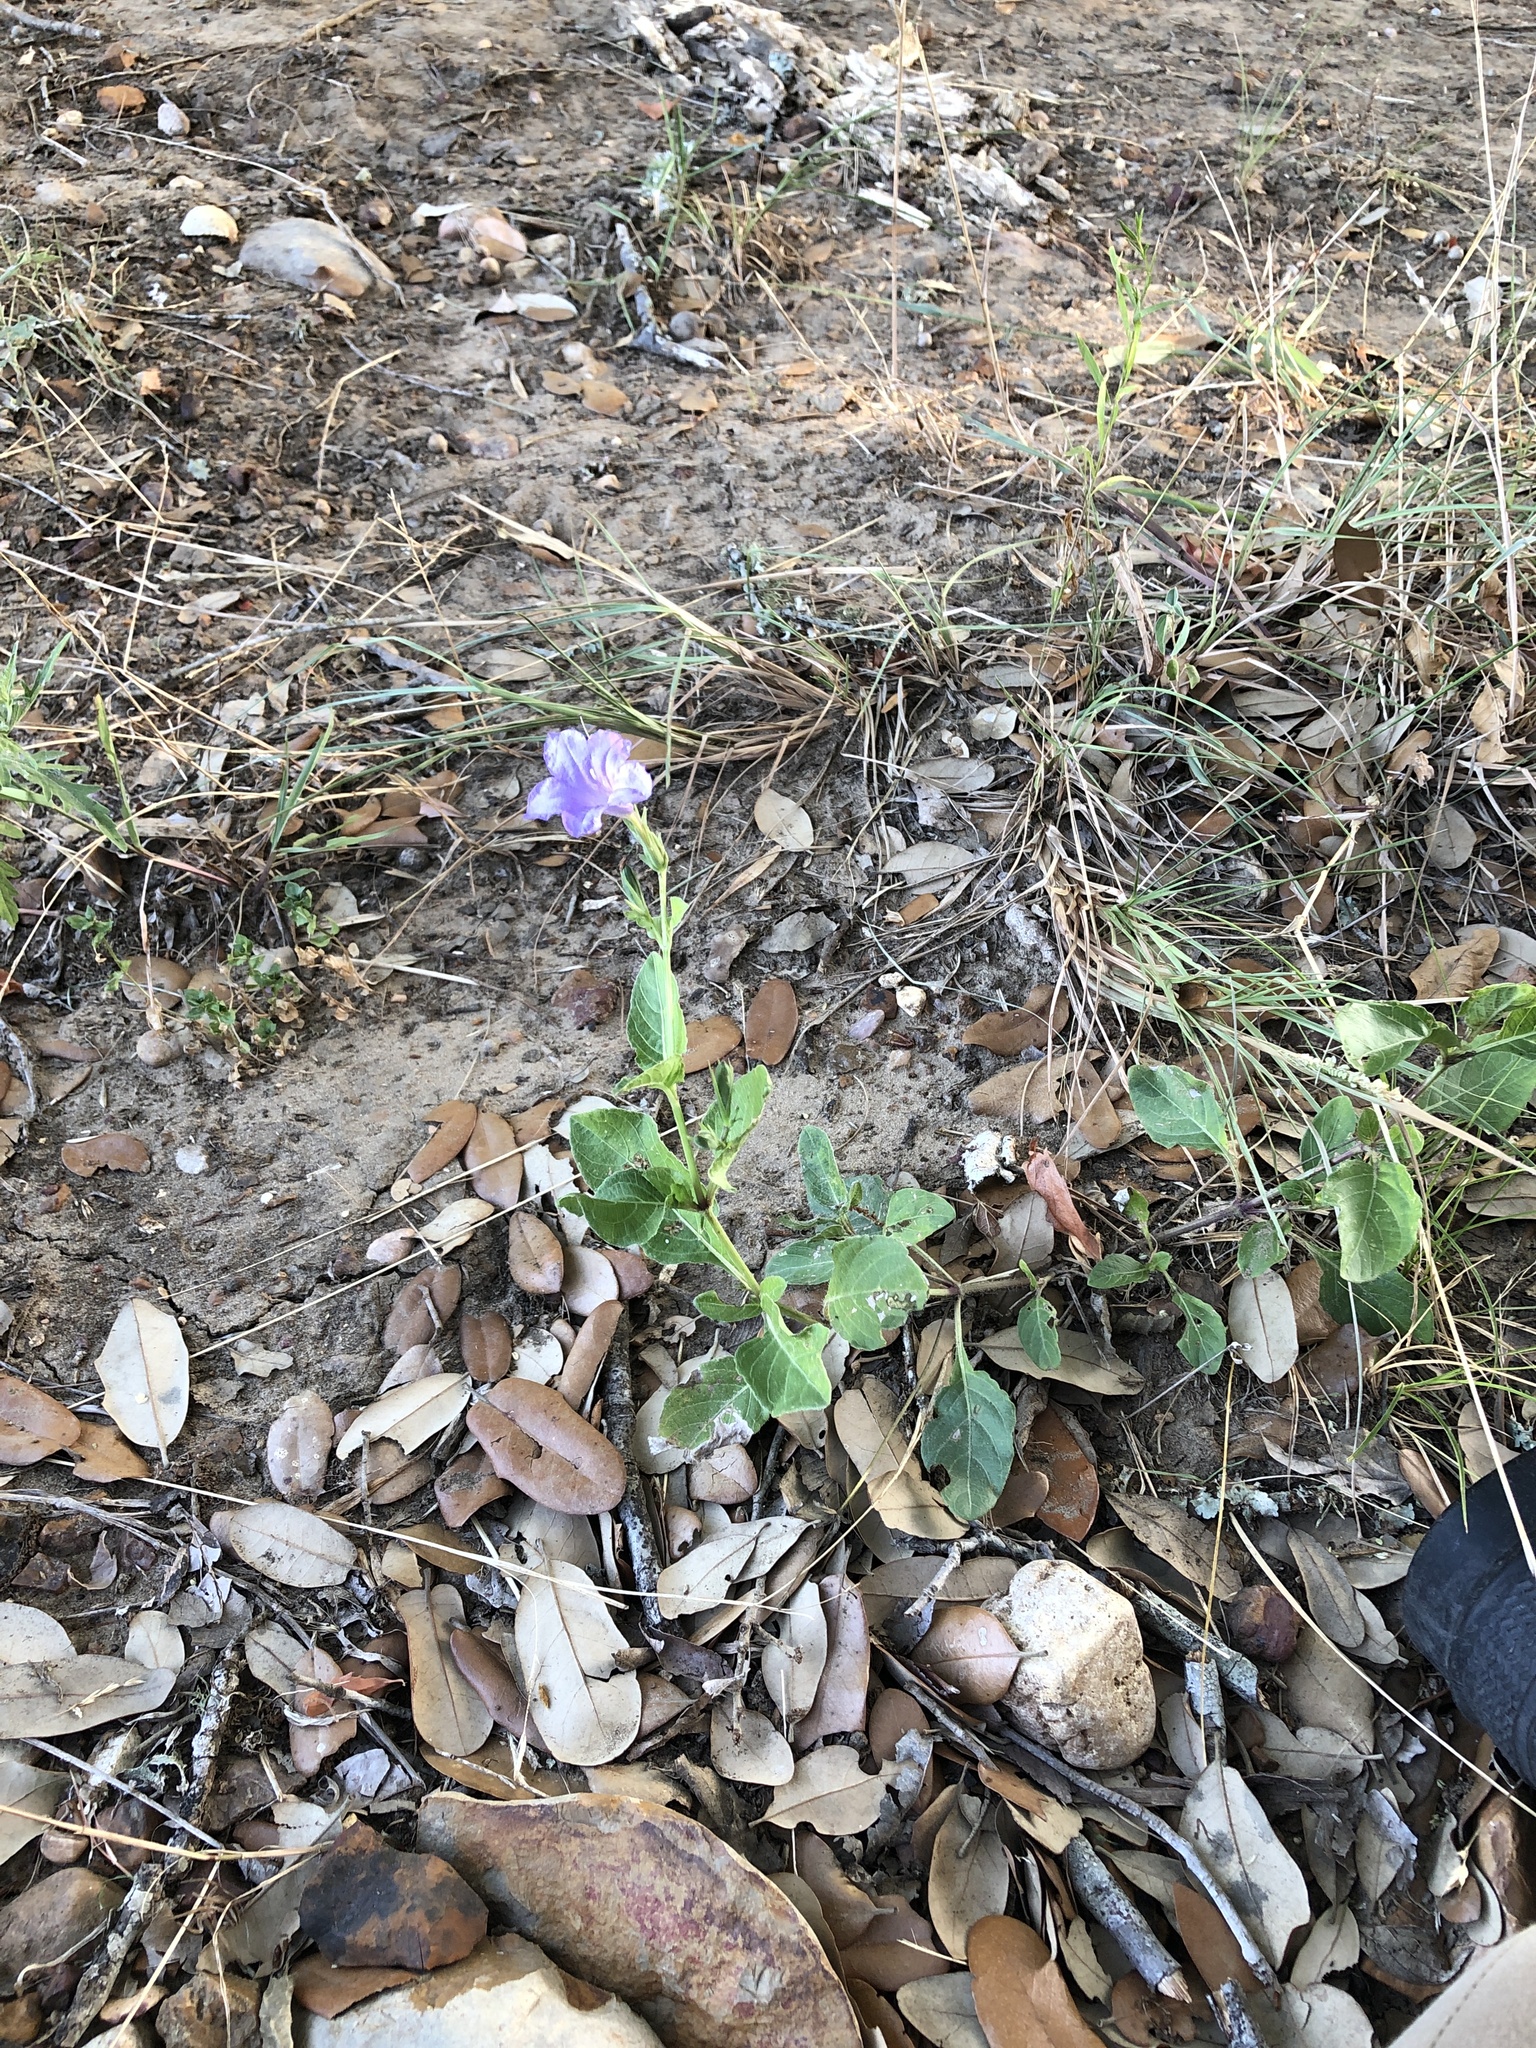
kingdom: Plantae
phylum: Tracheophyta
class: Magnoliopsida
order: Lamiales
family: Acanthaceae
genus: Ruellia
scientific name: Ruellia ciliatiflora
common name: Hairyflower wild petunia
